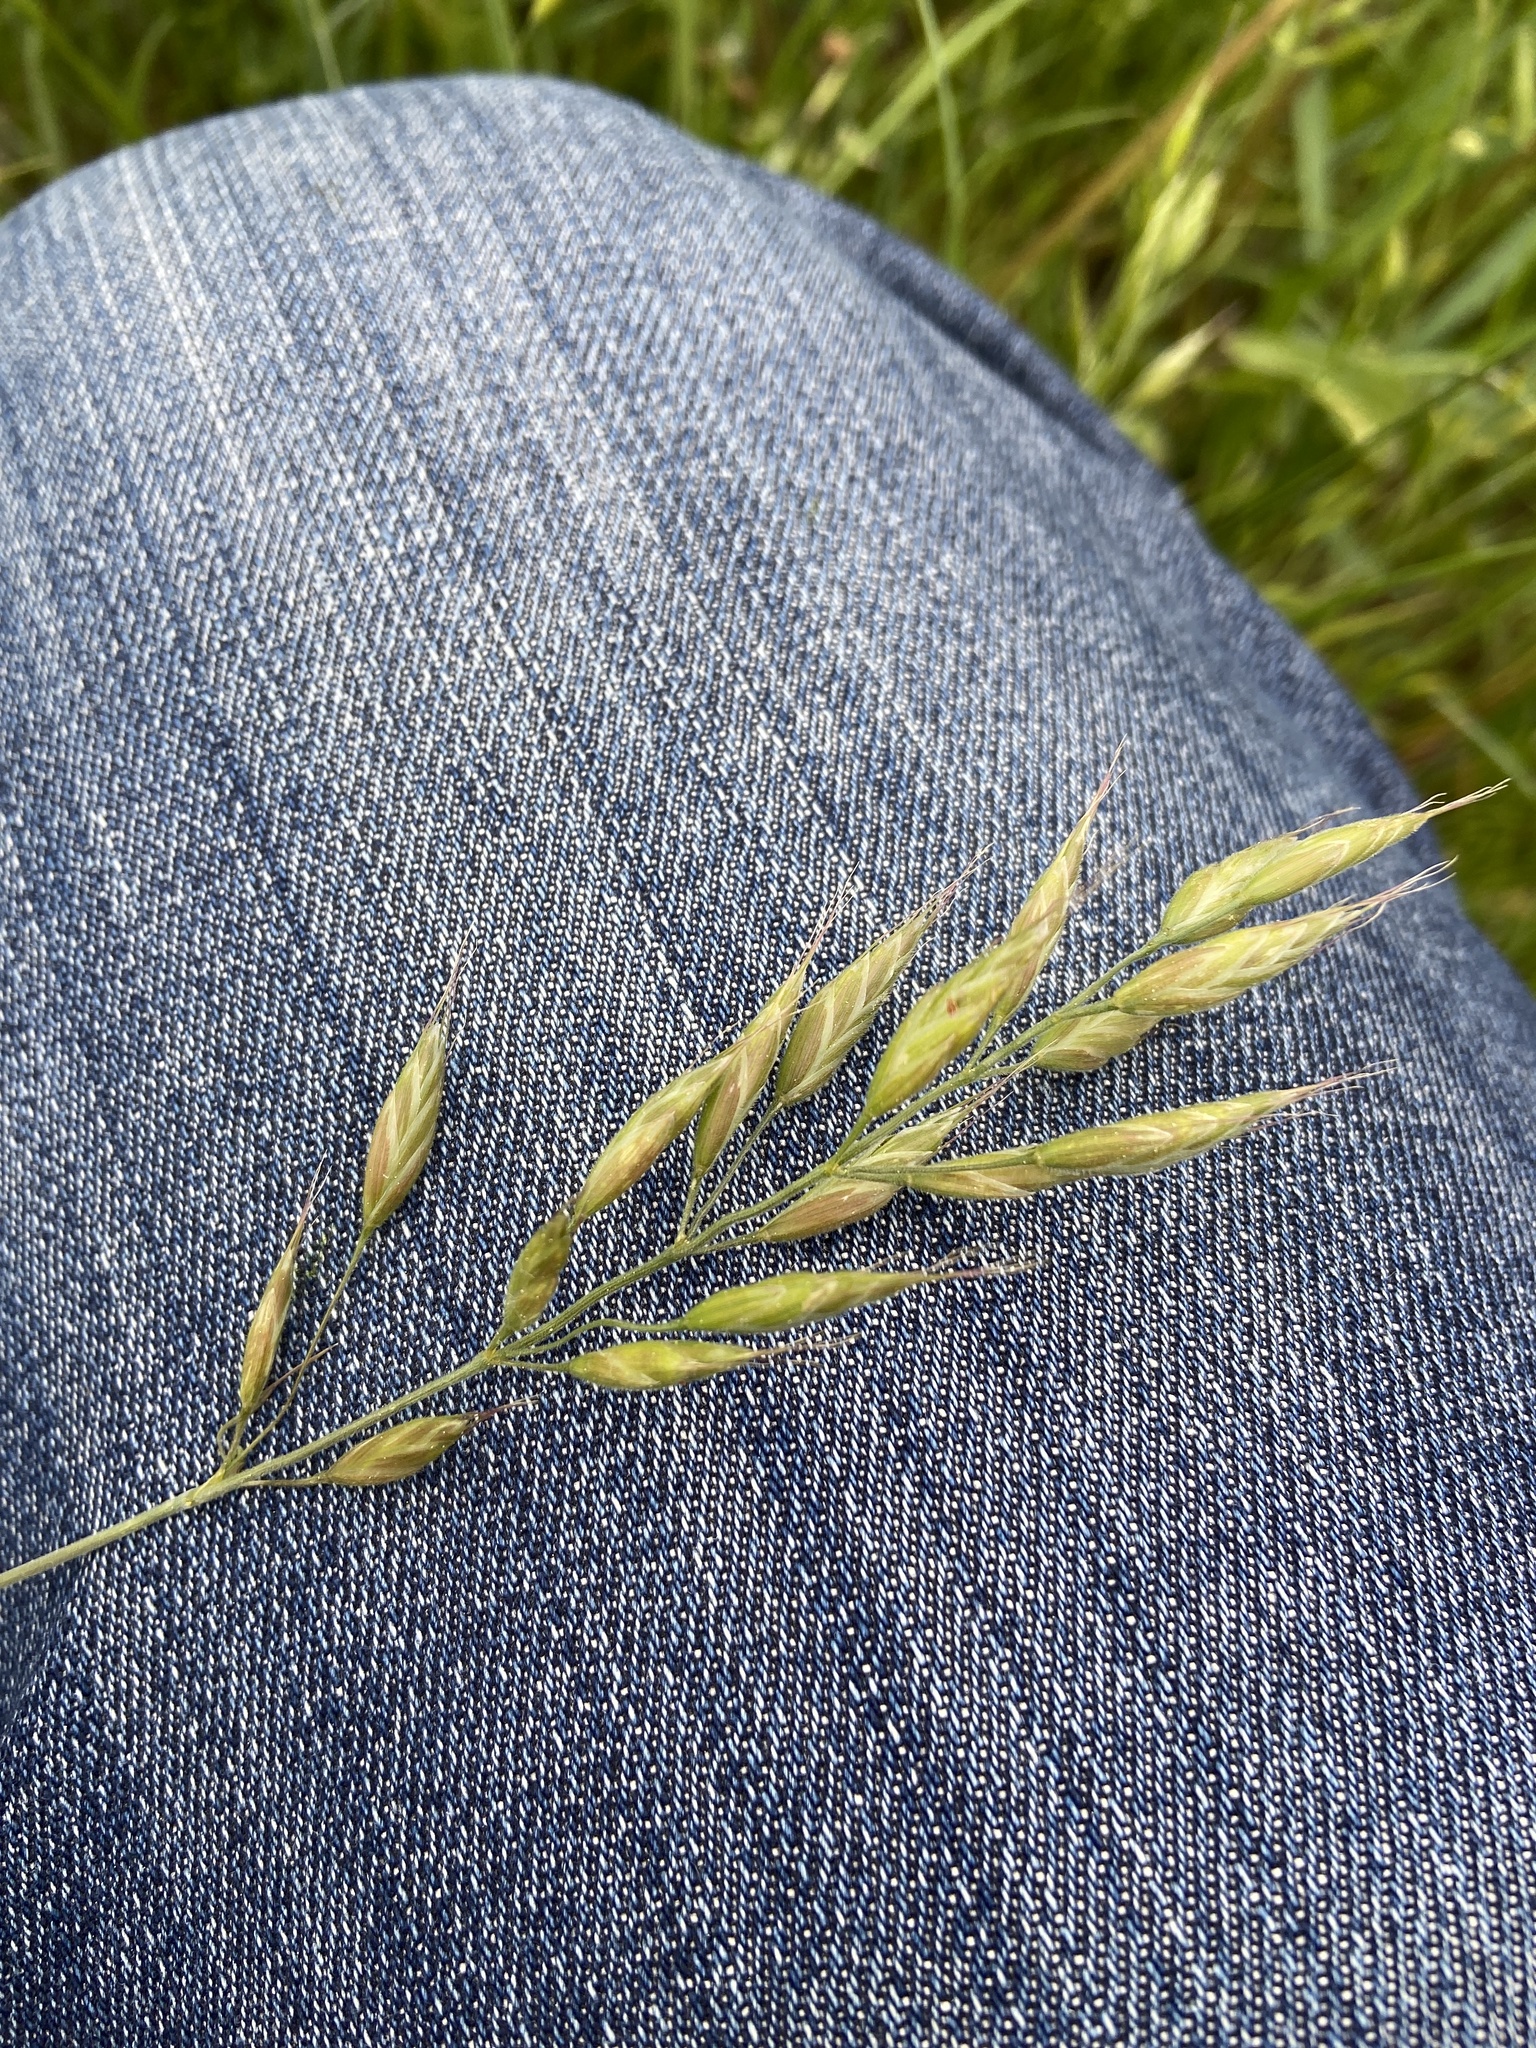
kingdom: Plantae
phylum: Tracheophyta
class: Liliopsida
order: Poales
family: Poaceae
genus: Bromus
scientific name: Bromus hordeaceus
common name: Soft brome
